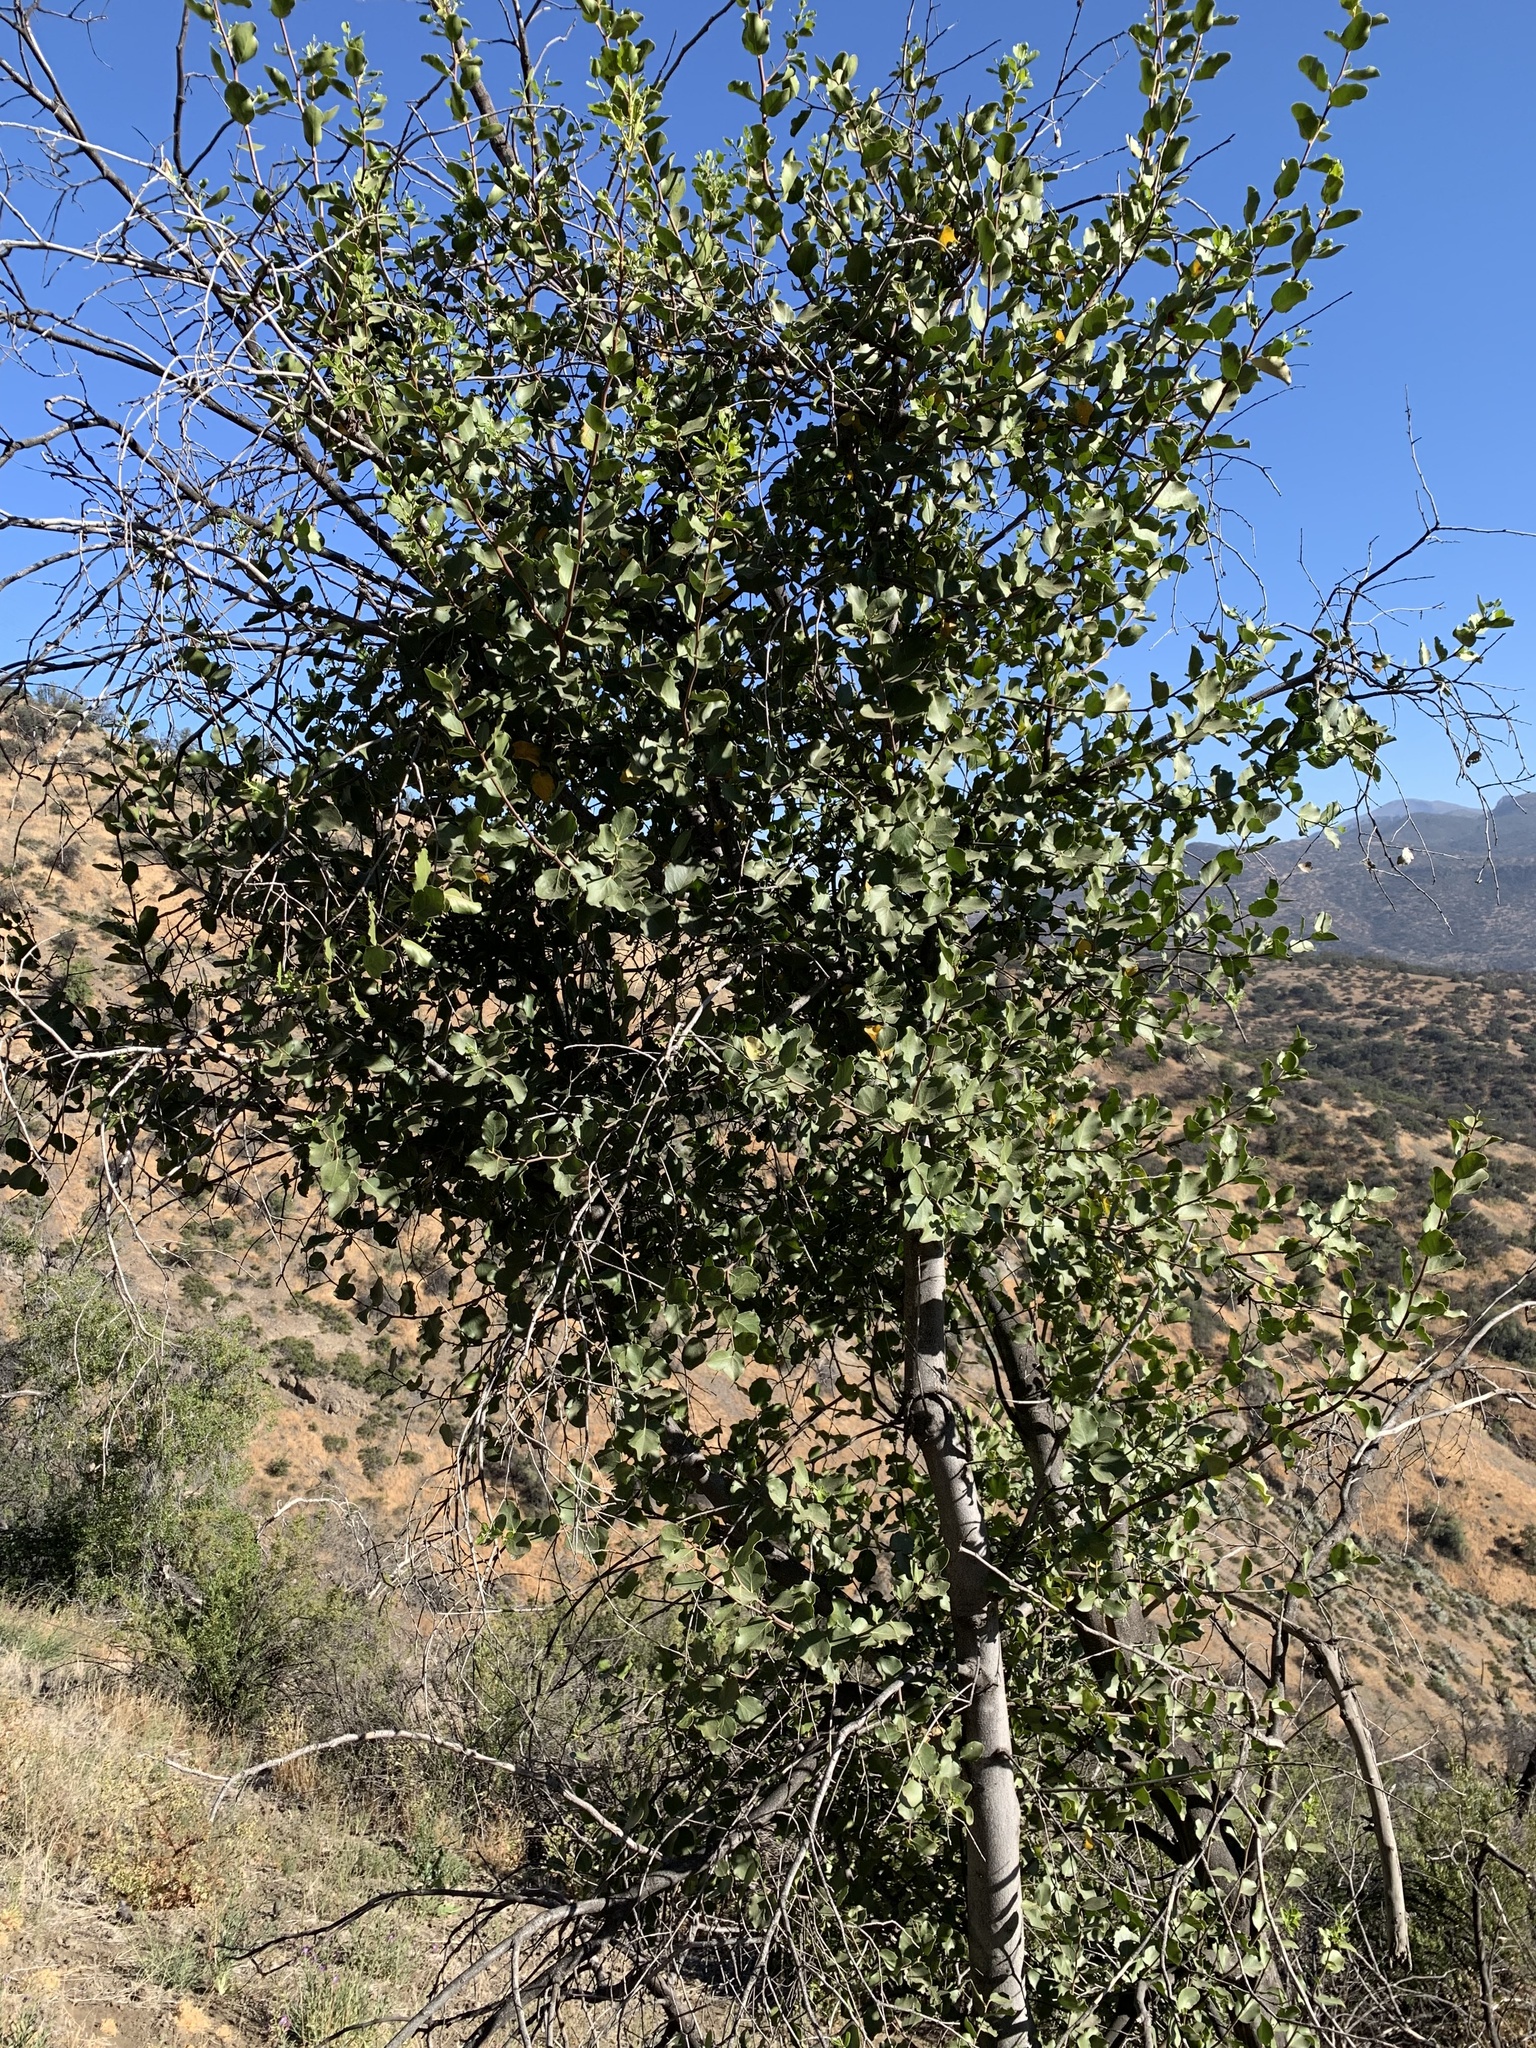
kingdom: Plantae
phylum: Tracheophyta
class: Magnoliopsida
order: Fabales
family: Quillajaceae
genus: Quillaja
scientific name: Quillaja saponaria
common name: Murillo's-bark
